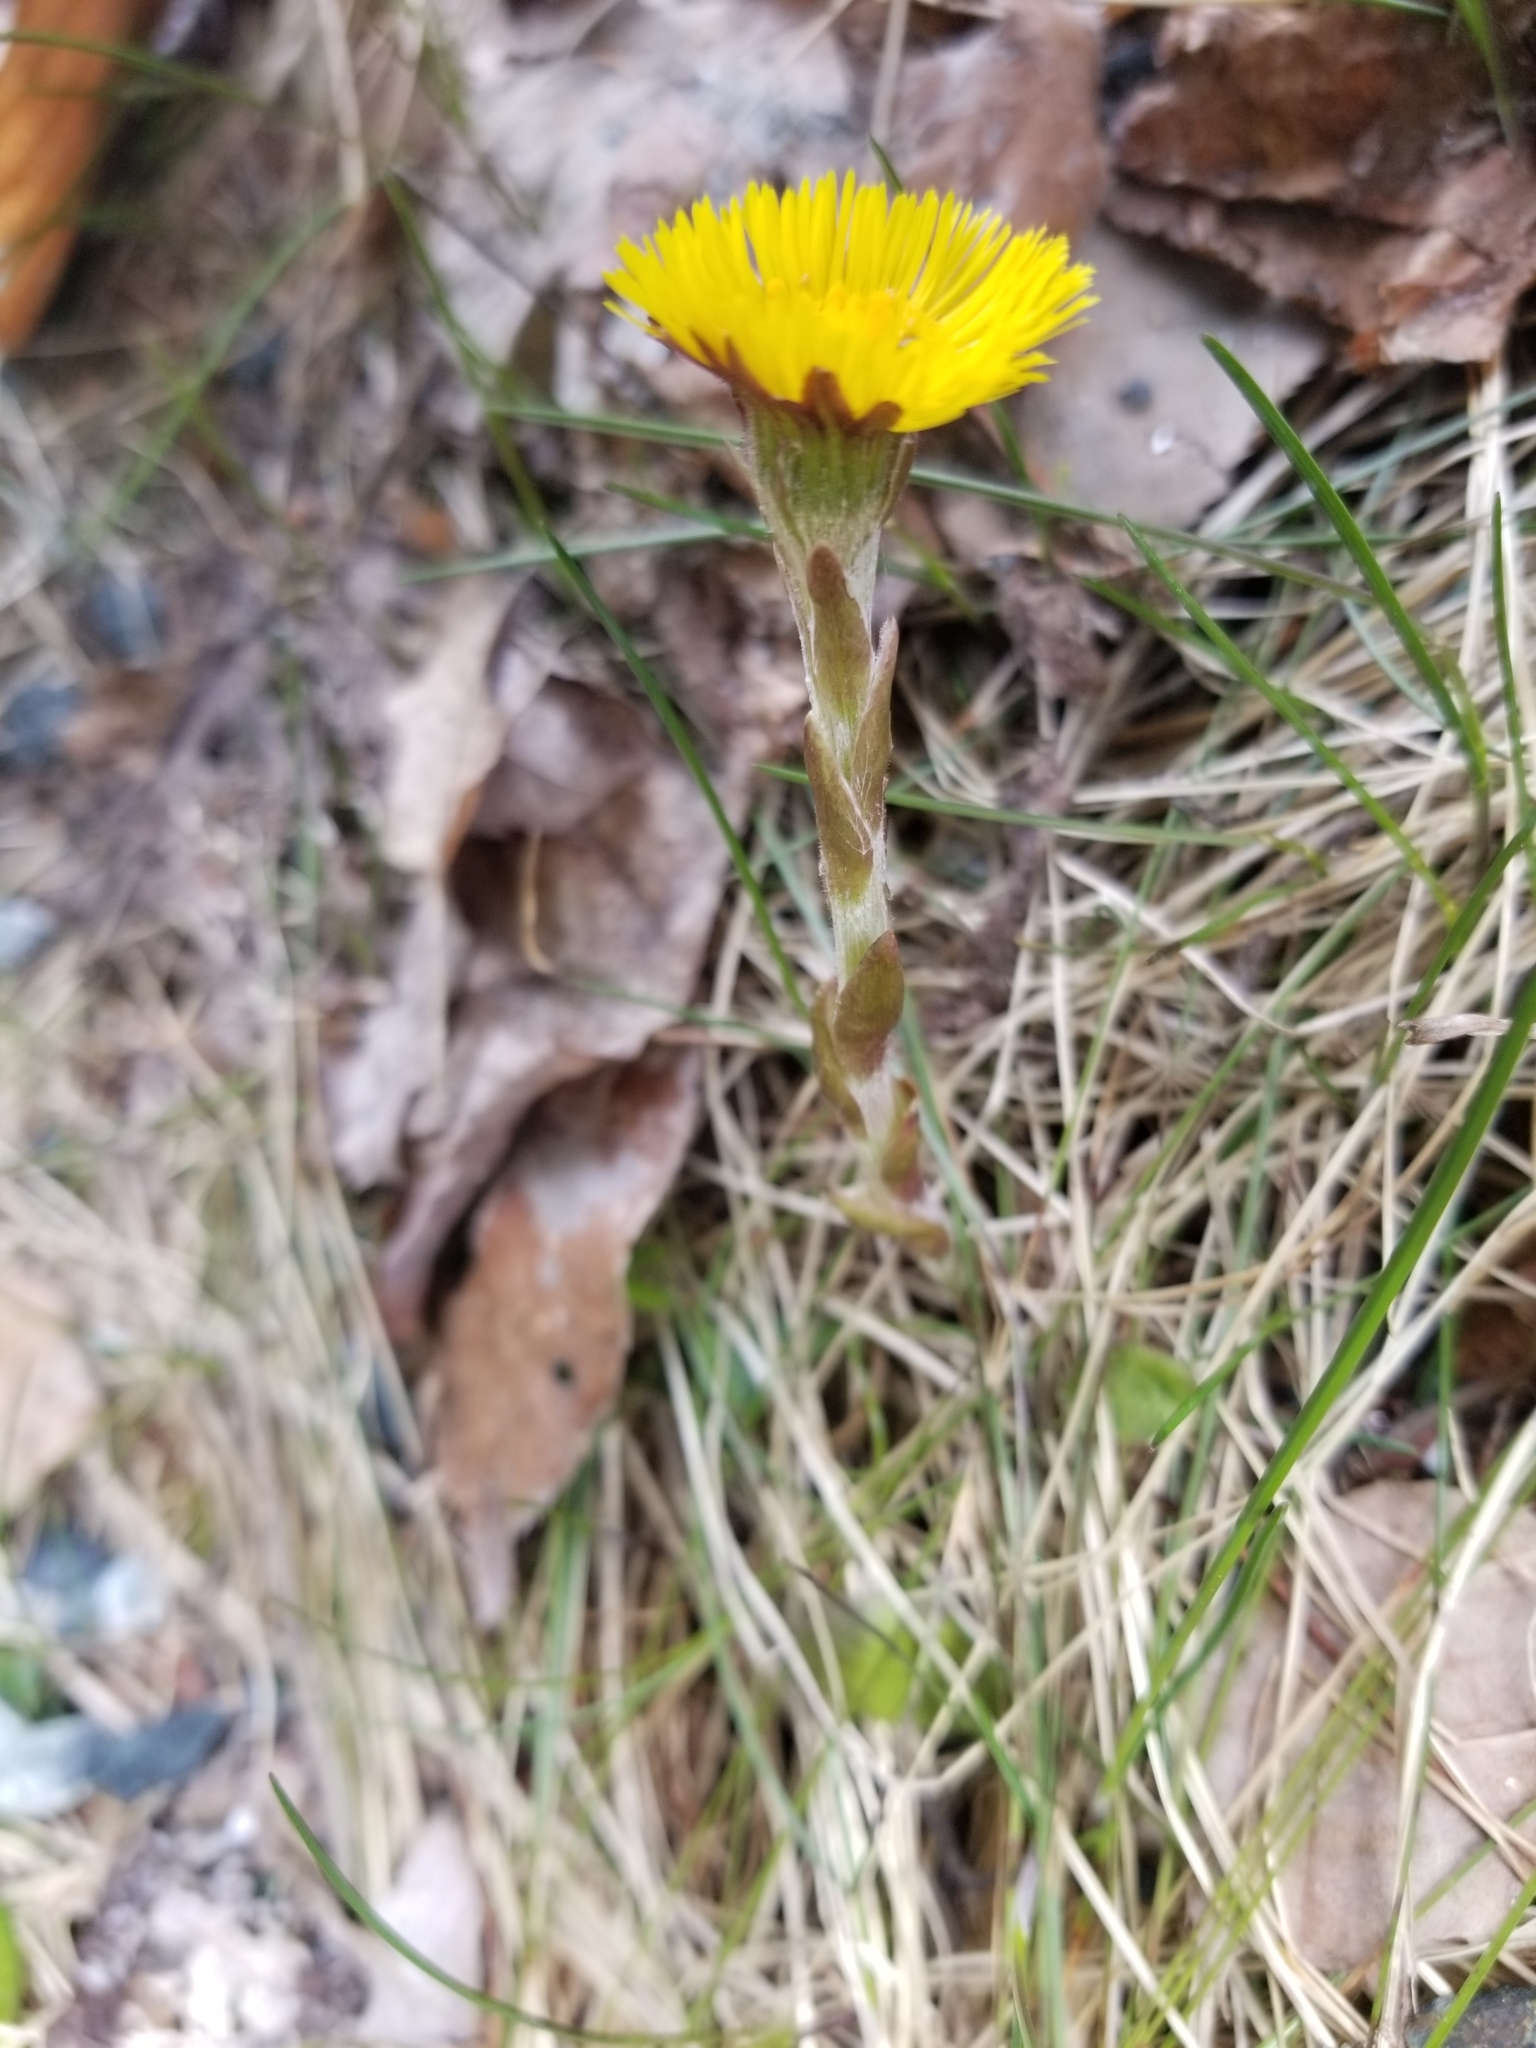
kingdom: Plantae
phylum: Tracheophyta
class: Magnoliopsida
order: Asterales
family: Asteraceae
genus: Tussilago
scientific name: Tussilago farfara
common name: Coltsfoot
